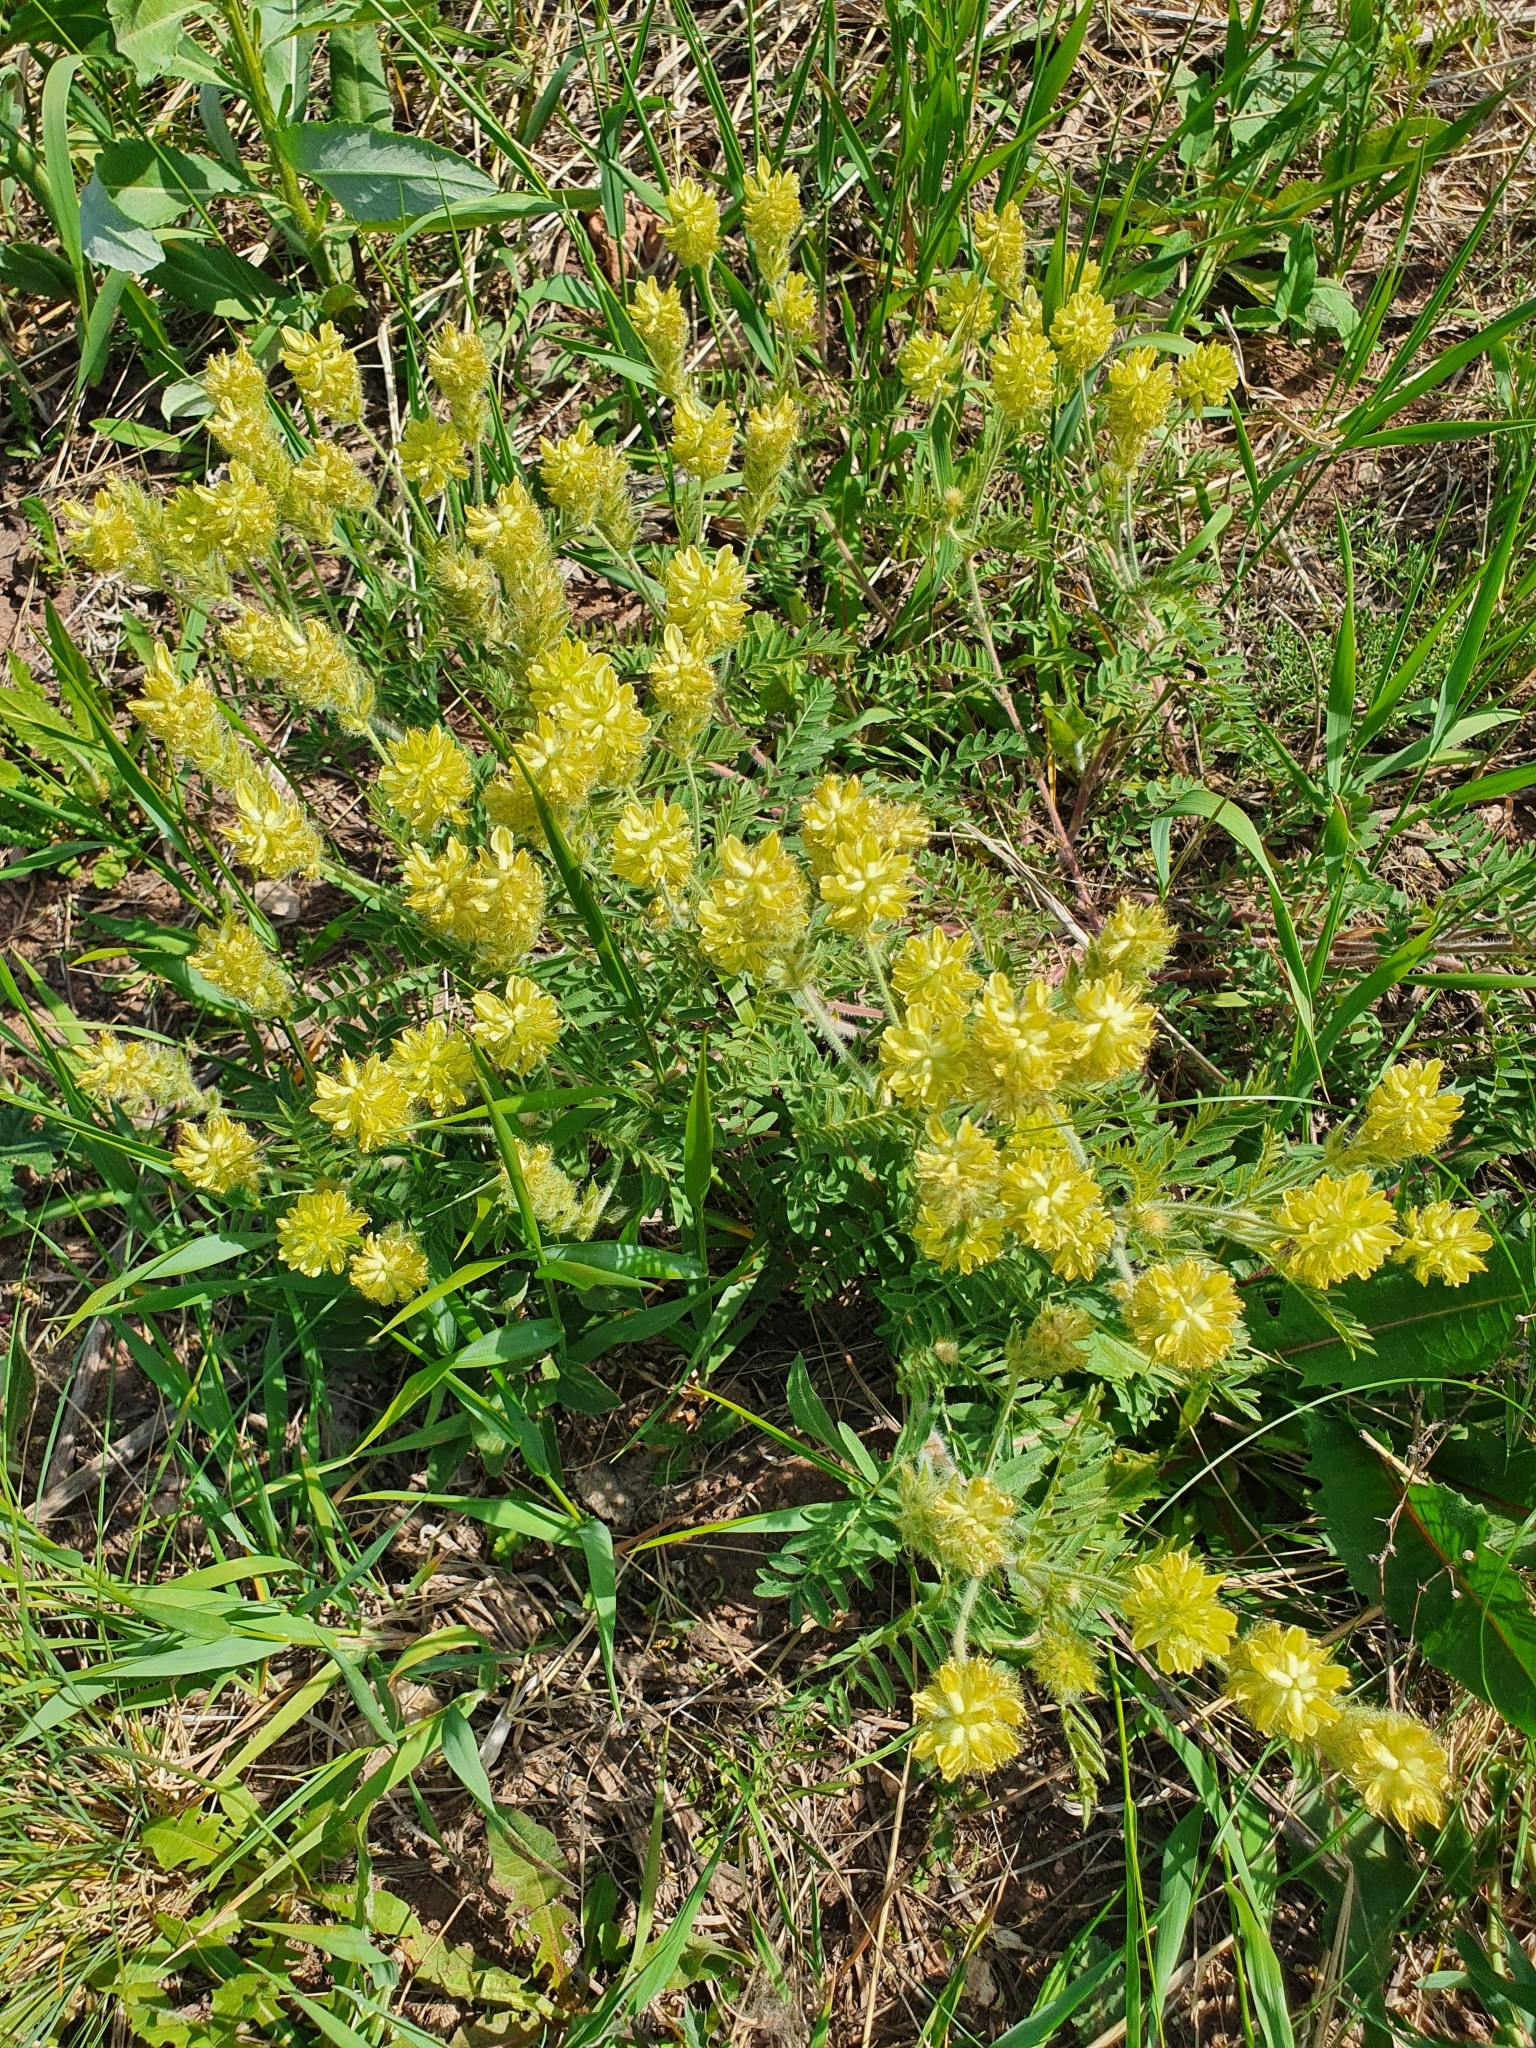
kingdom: Plantae
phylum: Tracheophyta
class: Magnoliopsida
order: Fabales
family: Fabaceae
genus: Oxytropis
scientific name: Oxytropis pilosa
